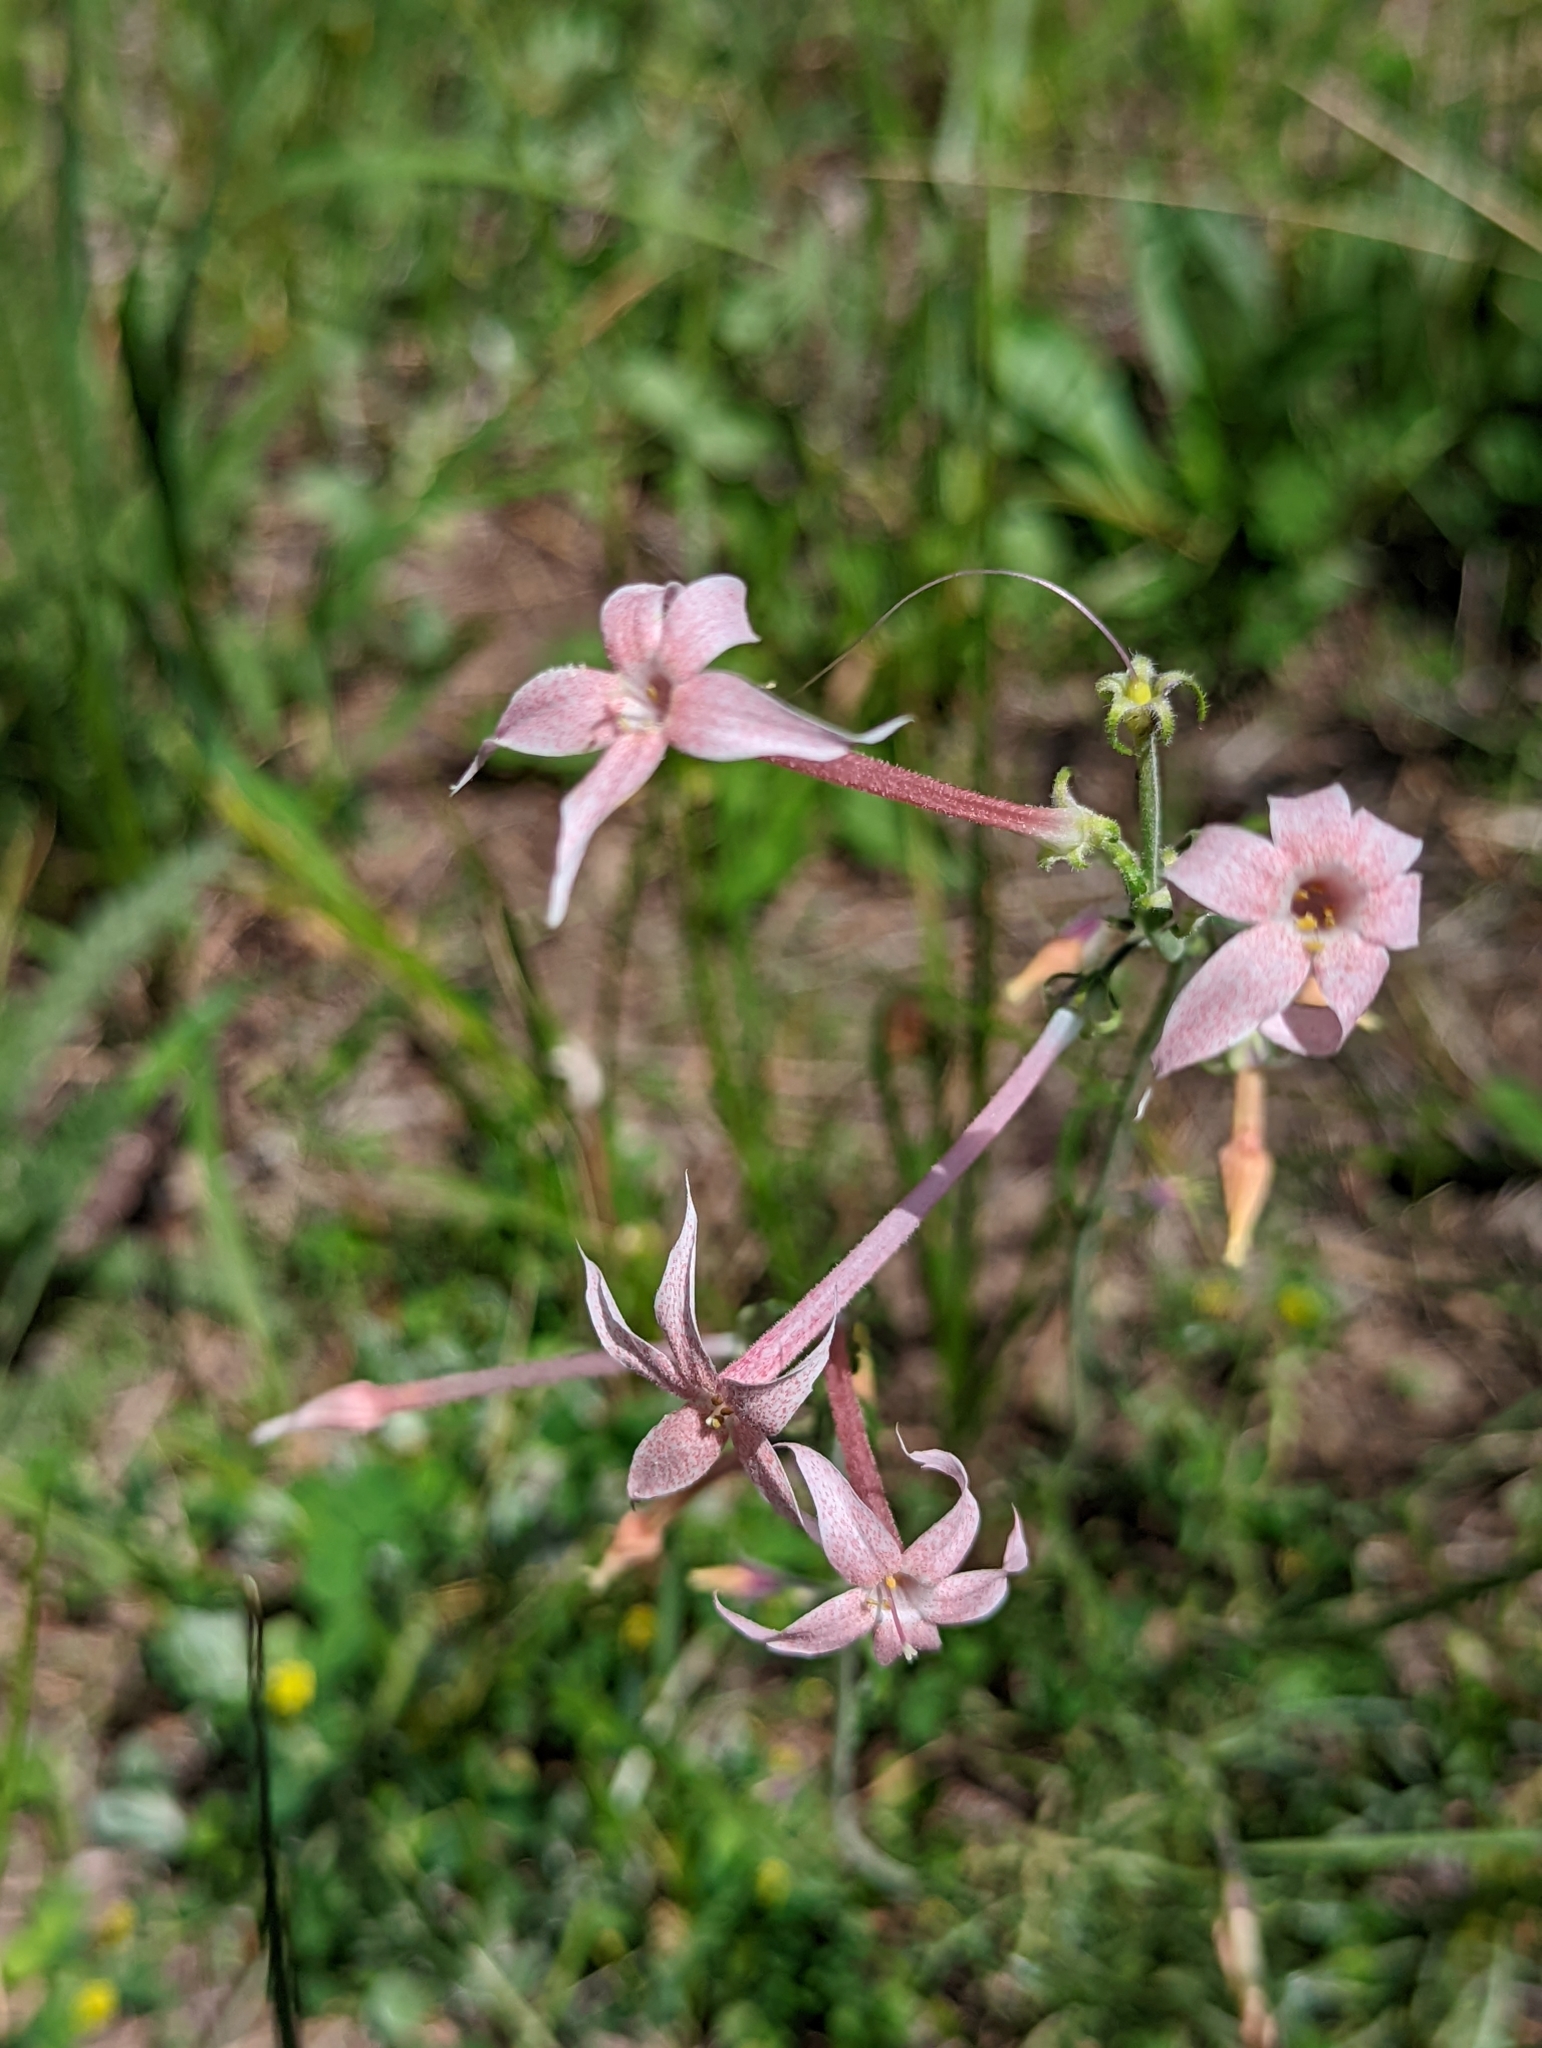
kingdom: Plantae
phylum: Tracheophyta
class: Magnoliopsida
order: Ericales
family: Polemoniaceae
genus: Ipomopsis
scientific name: Ipomopsis tenuituba
